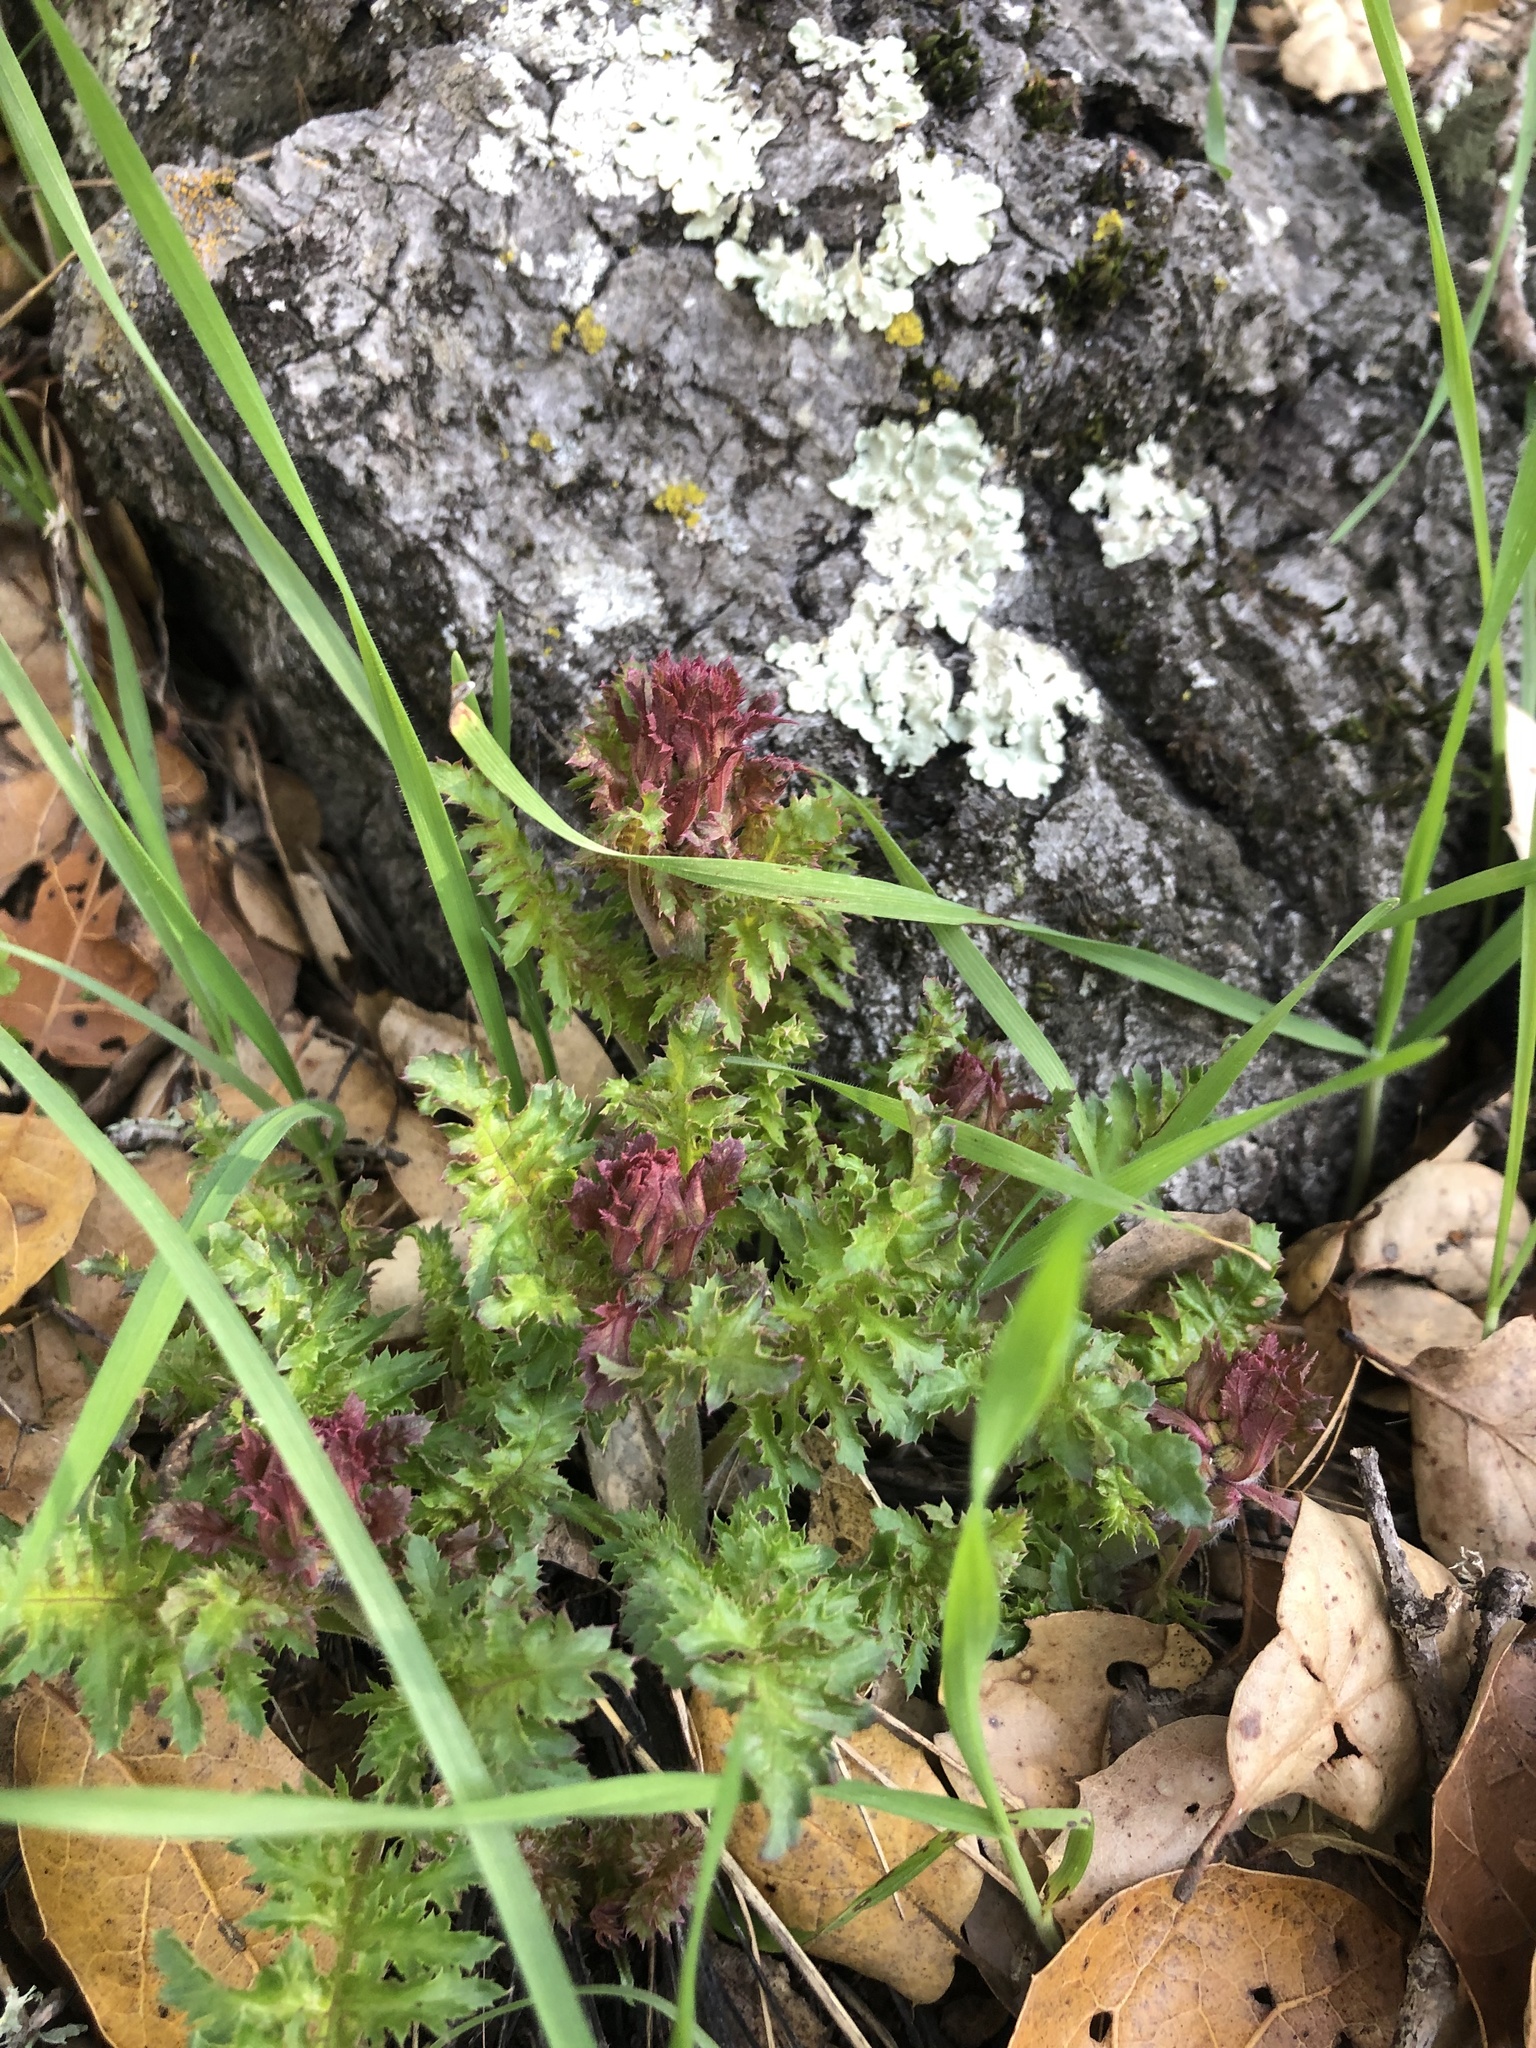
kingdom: Plantae
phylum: Tracheophyta
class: Magnoliopsida
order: Lamiales
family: Orobanchaceae
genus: Pedicularis
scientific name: Pedicularis densiflora
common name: Indian warrior
